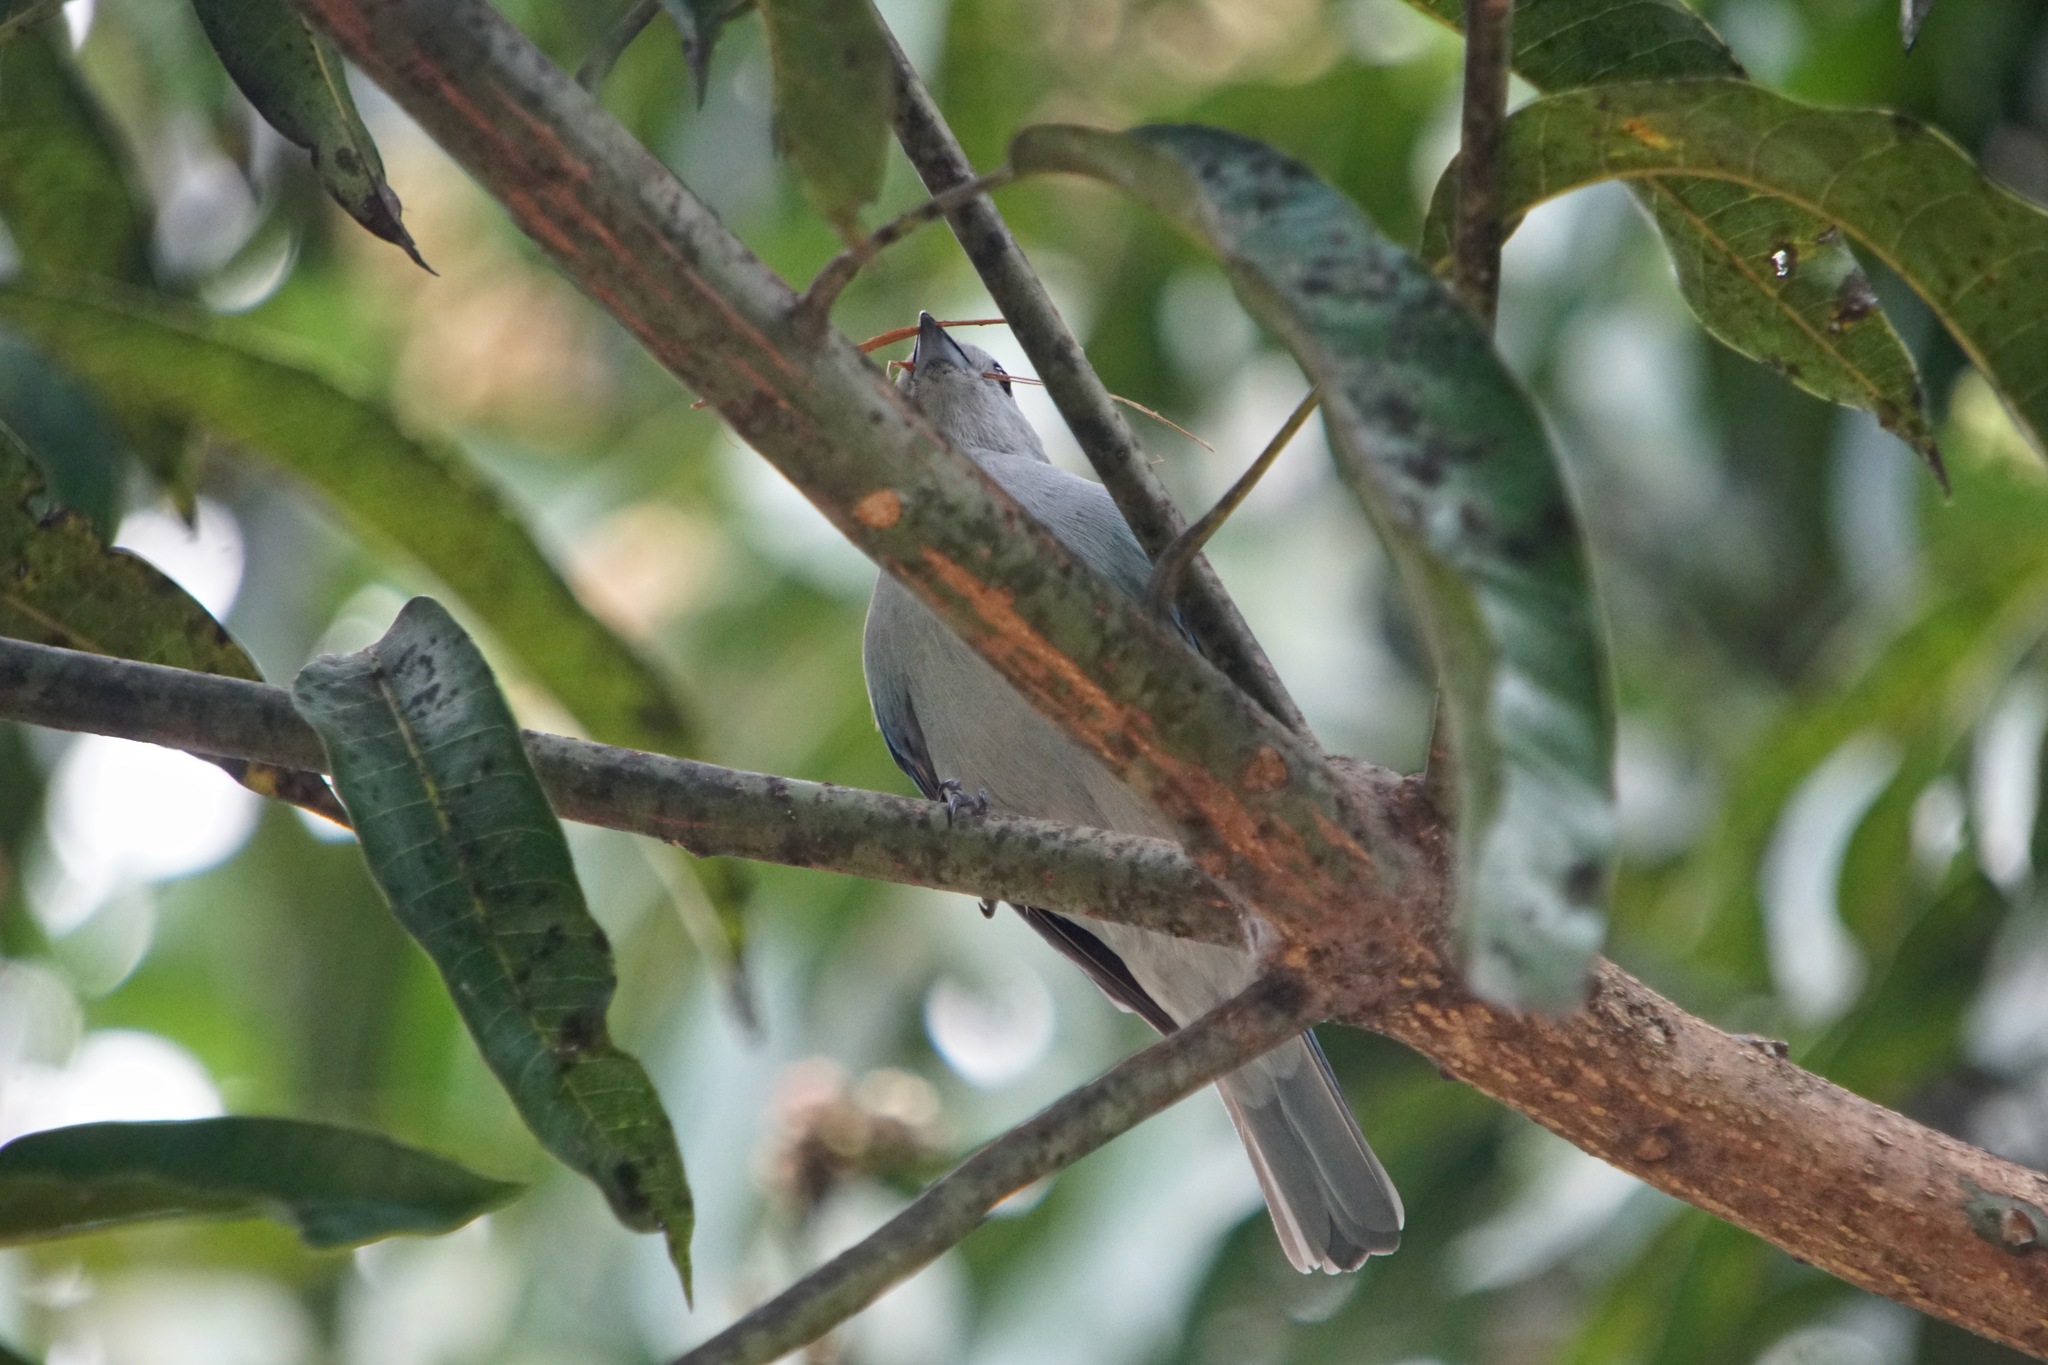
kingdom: Animalia
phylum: Chordata
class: Aves
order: Passeriformes
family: Thraupidae
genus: Thraupis
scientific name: Thraupis episcopus
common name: Blue-grey tanager
